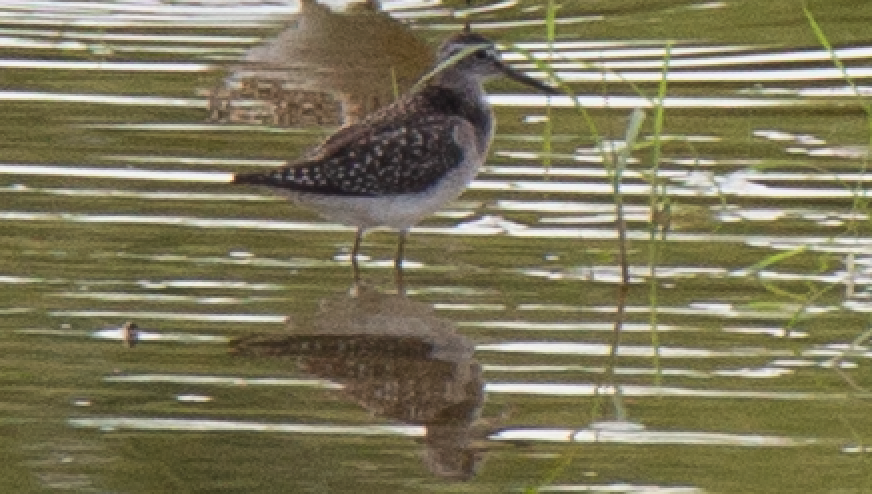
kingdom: Animalia
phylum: Chordata
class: Aves
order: Charadriiformes
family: Scolopacidae
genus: Tringa
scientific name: Tringa glareola
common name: Wood sandpiper
